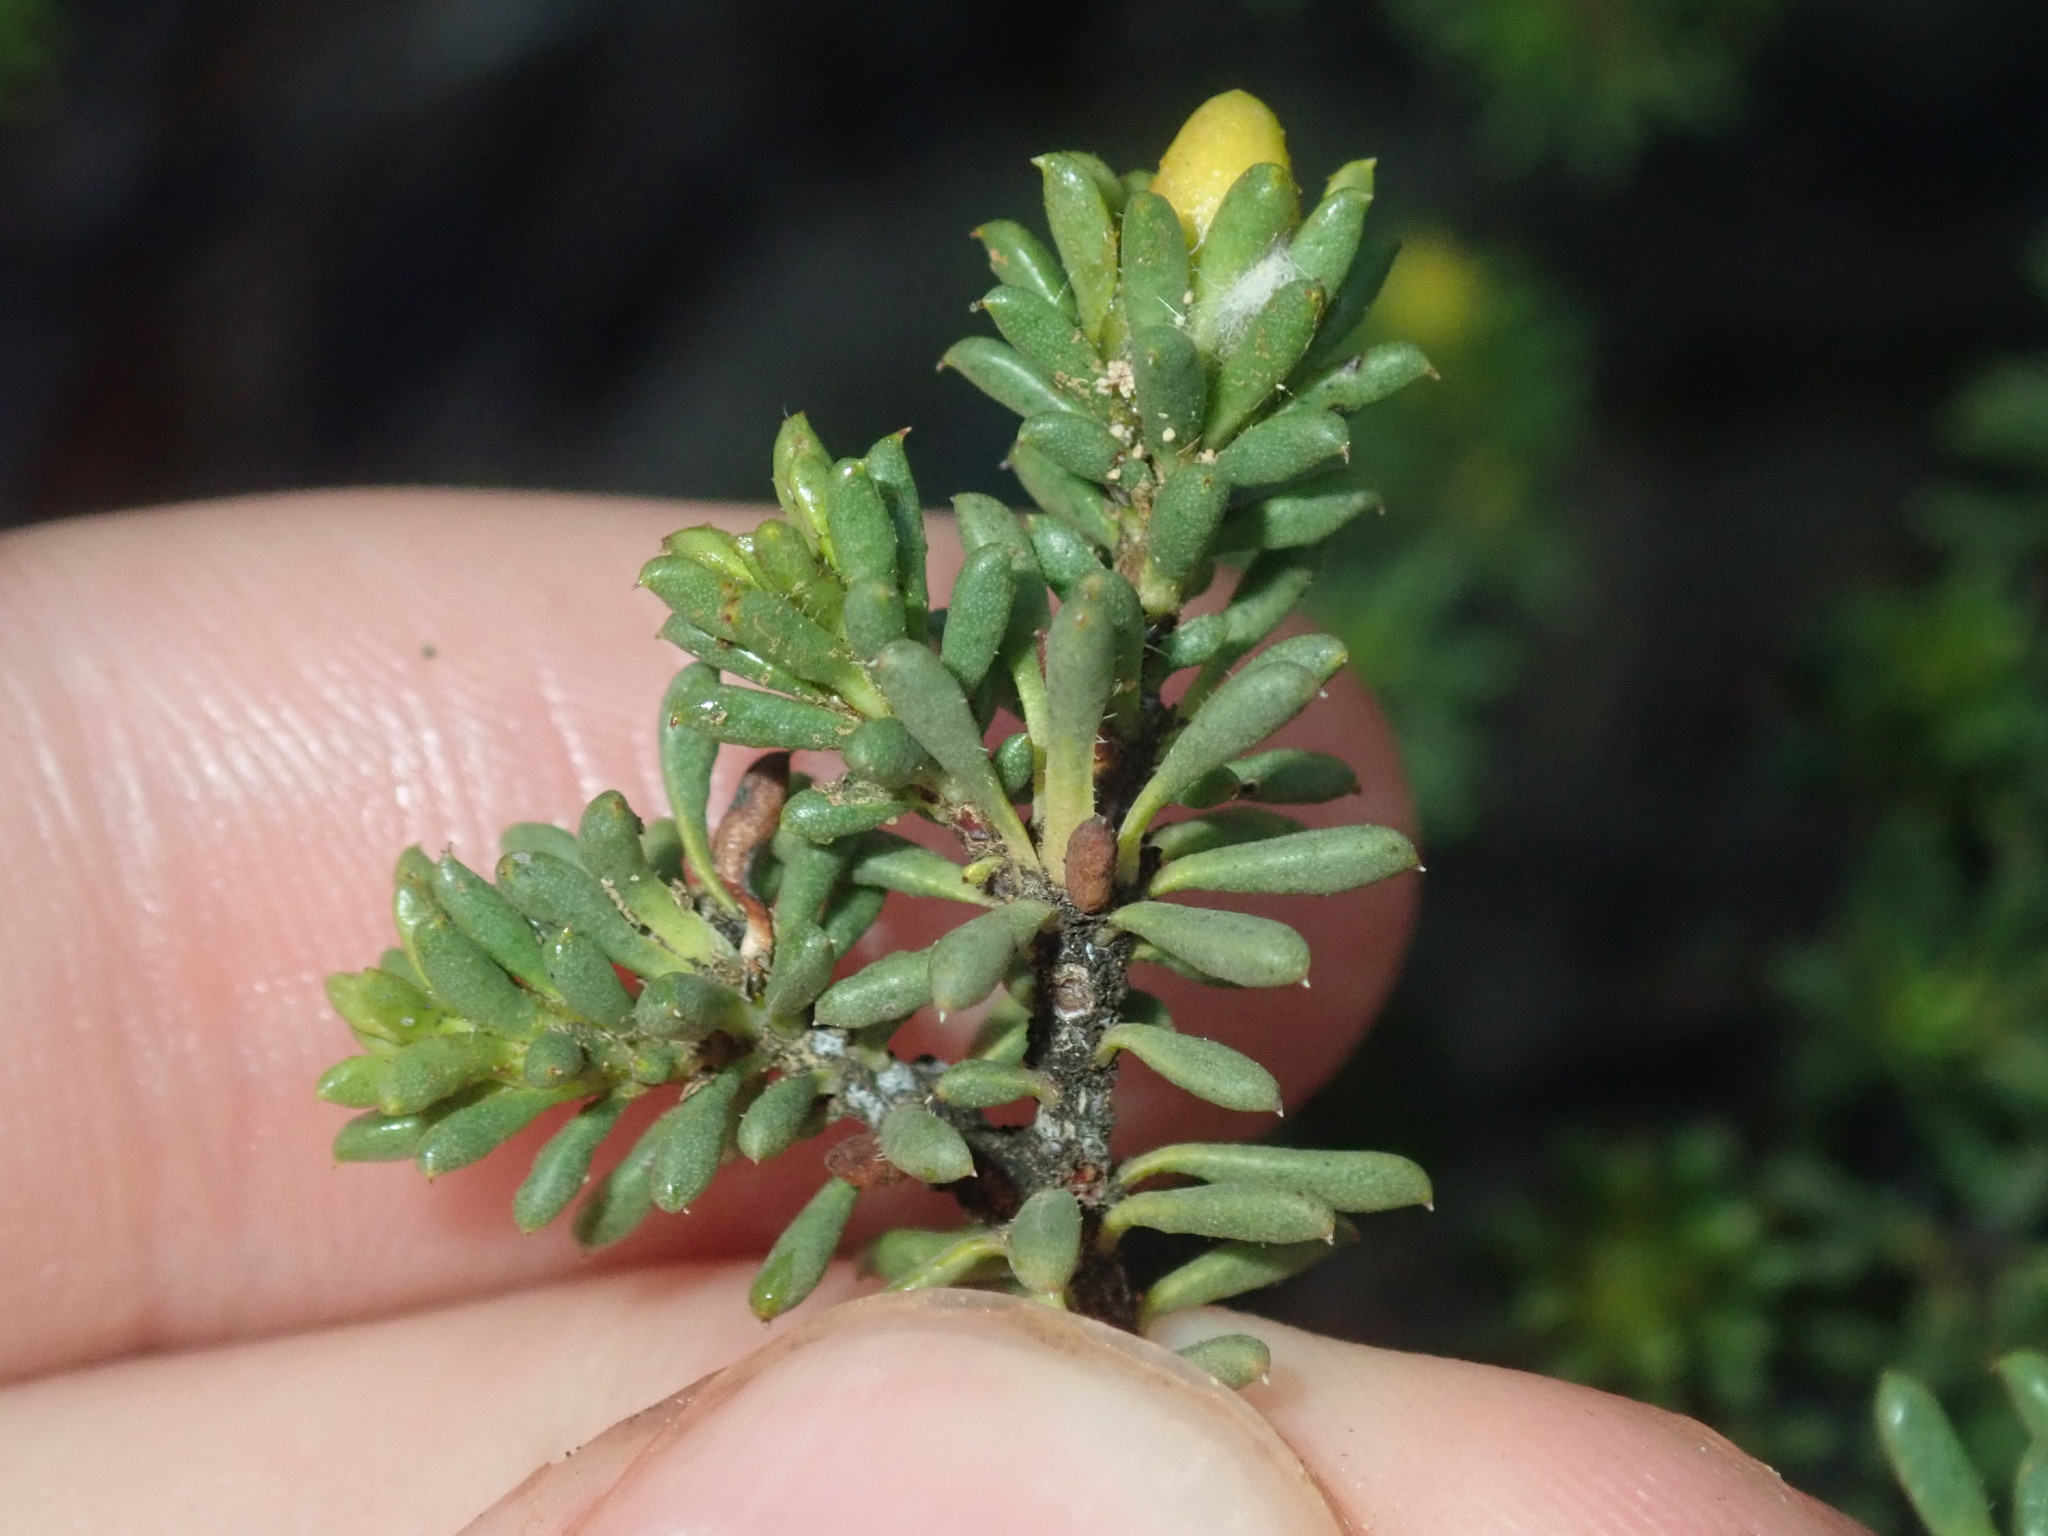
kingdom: Plantae
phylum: Tracheophyta
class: Magnoliopsida
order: Sapindales
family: Rutaceae
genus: Drummondita
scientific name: Drummondita hassellii
